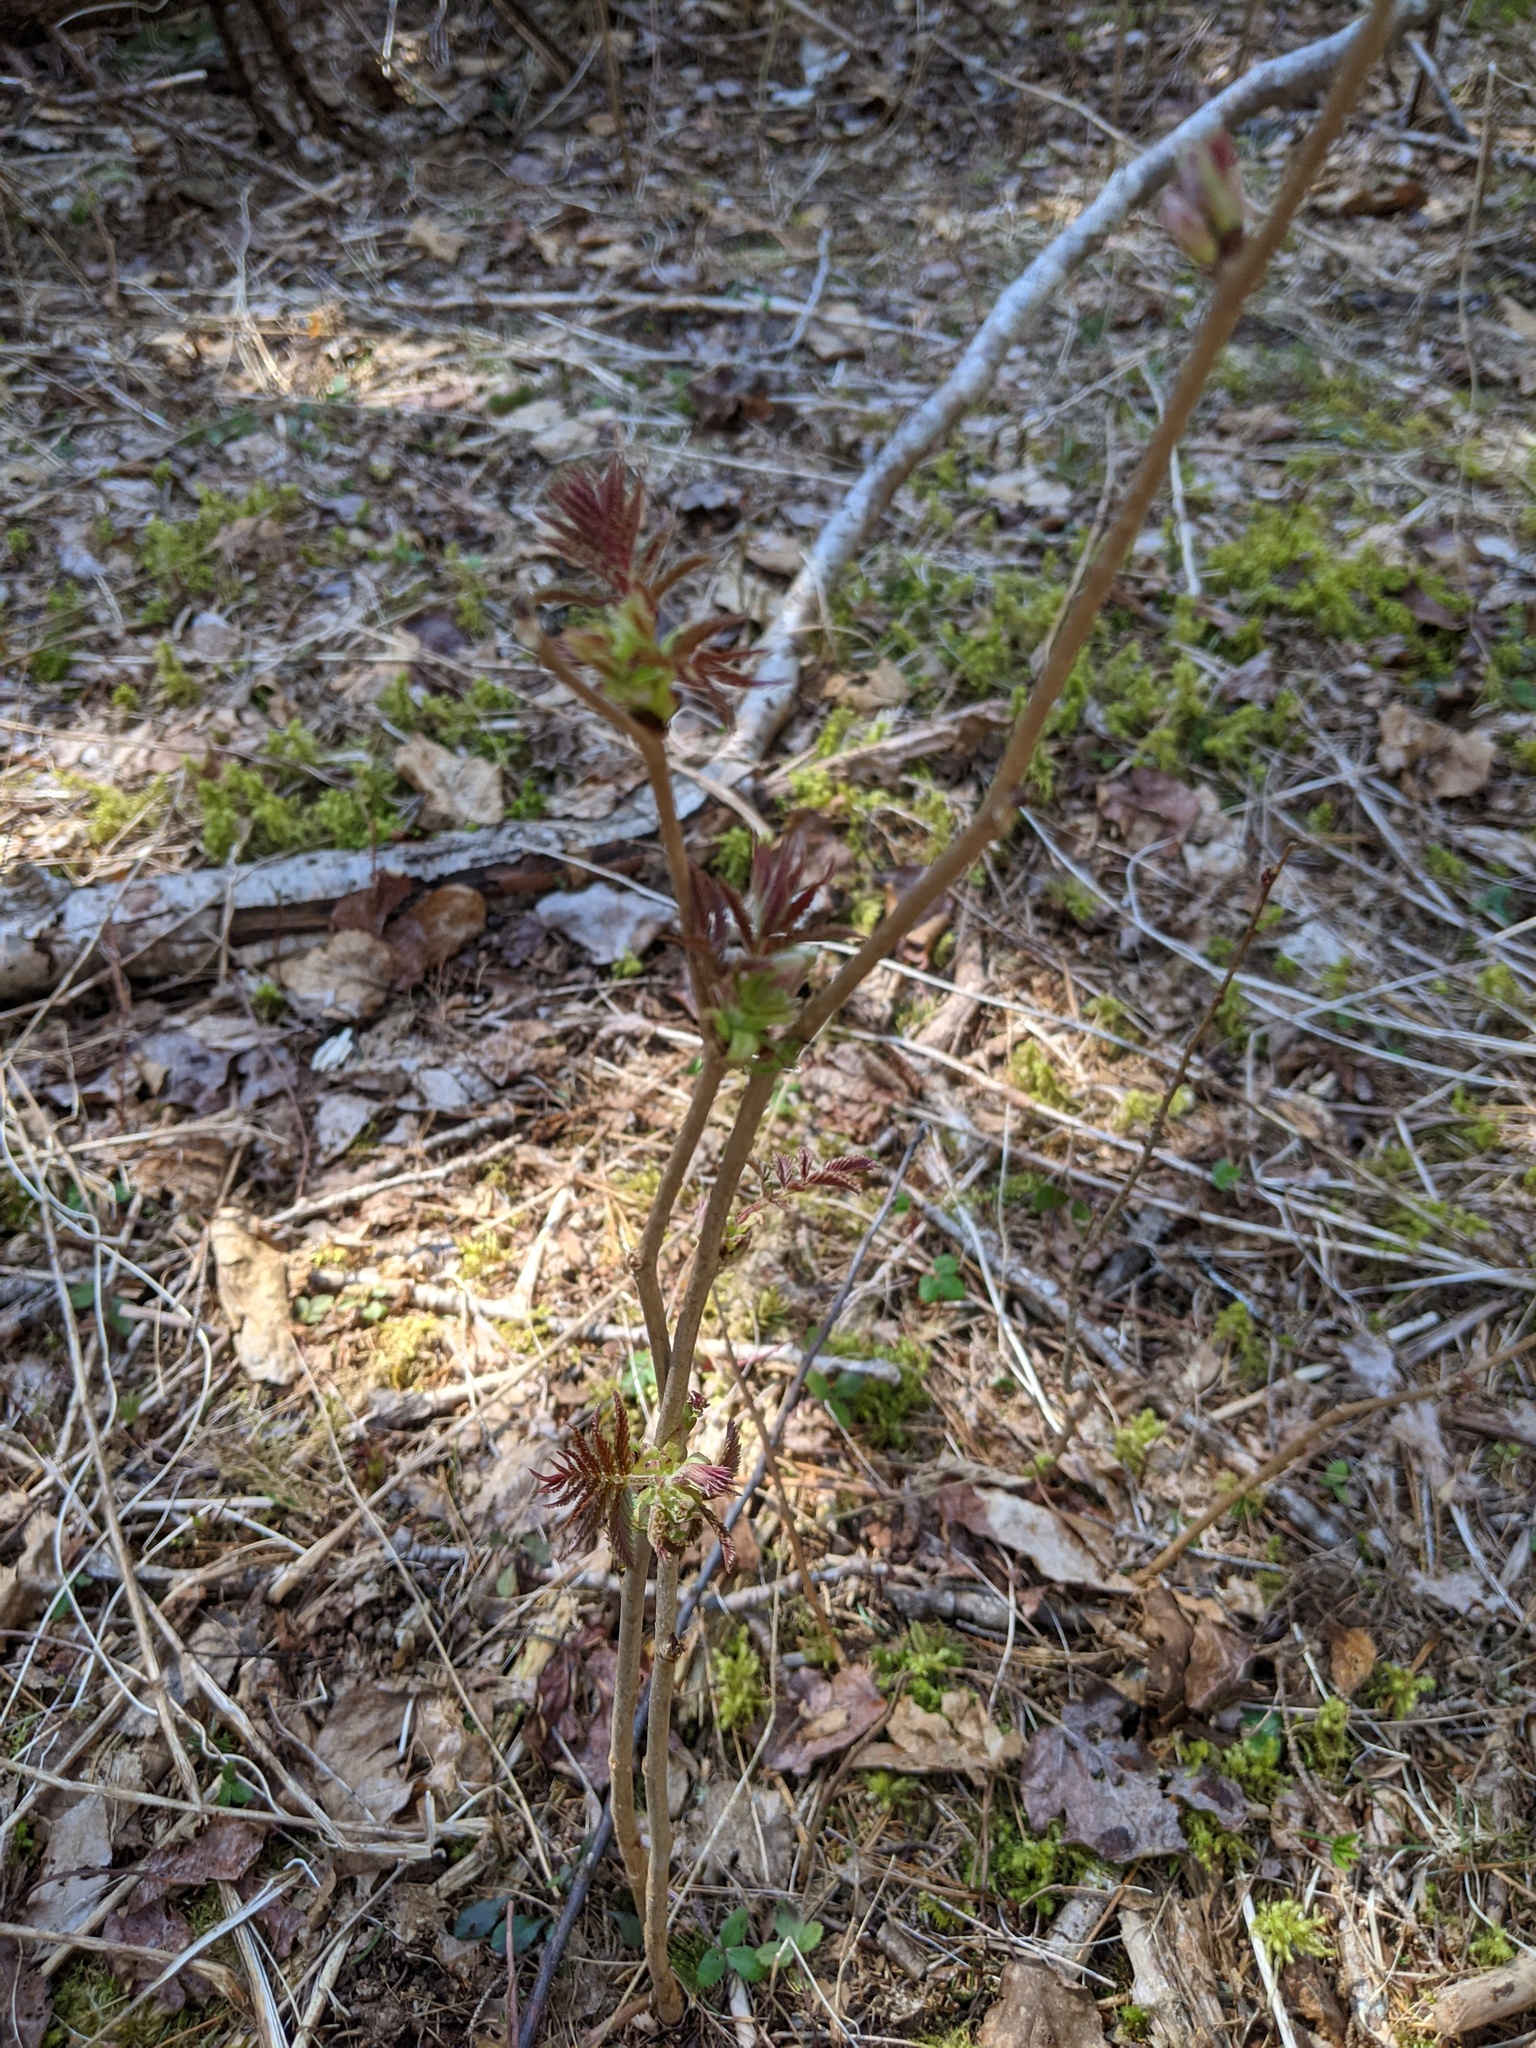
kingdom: Plantae
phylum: Tracheophyta
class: Magnoliopsida
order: Dipsacales
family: Viburnaceae
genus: Sambucus
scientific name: Sambucus racemosa
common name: Red-berried elder
